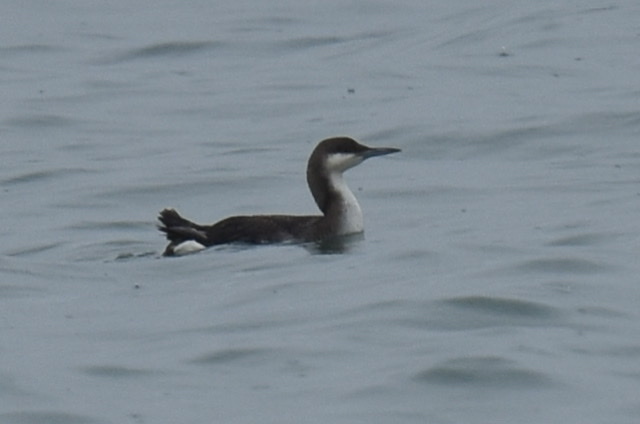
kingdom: Animalia
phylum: Chordata
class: Aves
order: Gaviiformes
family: Gaviidae
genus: Gavia
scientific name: Gavia arctica
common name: Black-throated loon
